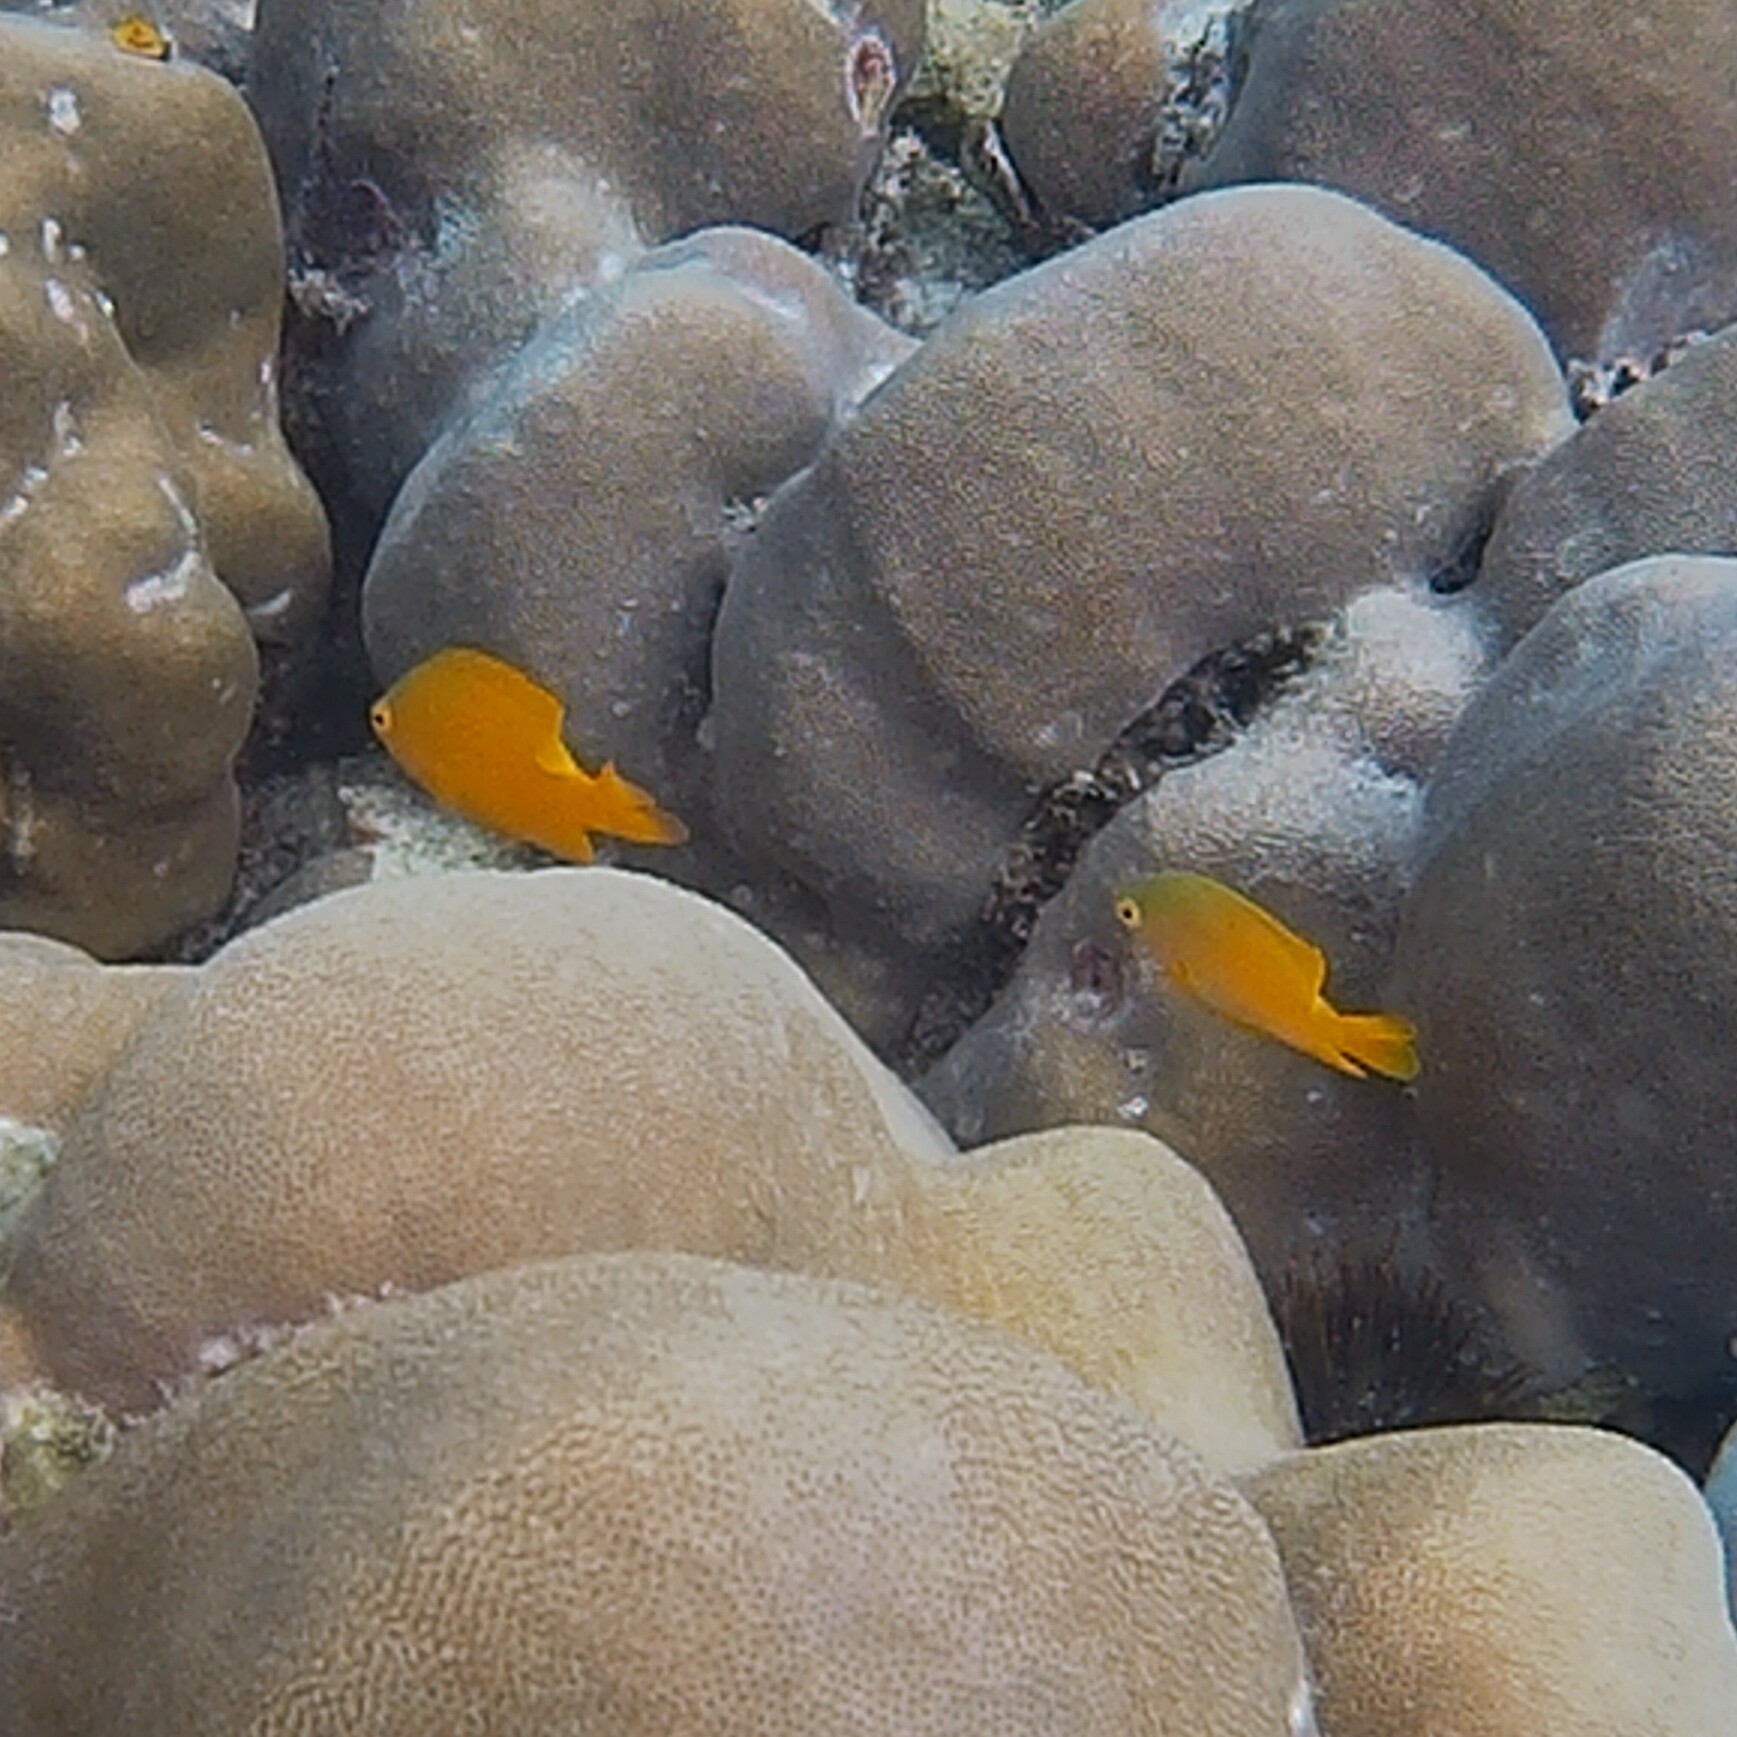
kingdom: Animalia
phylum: Chordata
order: Perciformes
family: Pomacentridae
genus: Pomacentrus
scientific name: Pomacentrus moluccensis
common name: Lemon damsel
